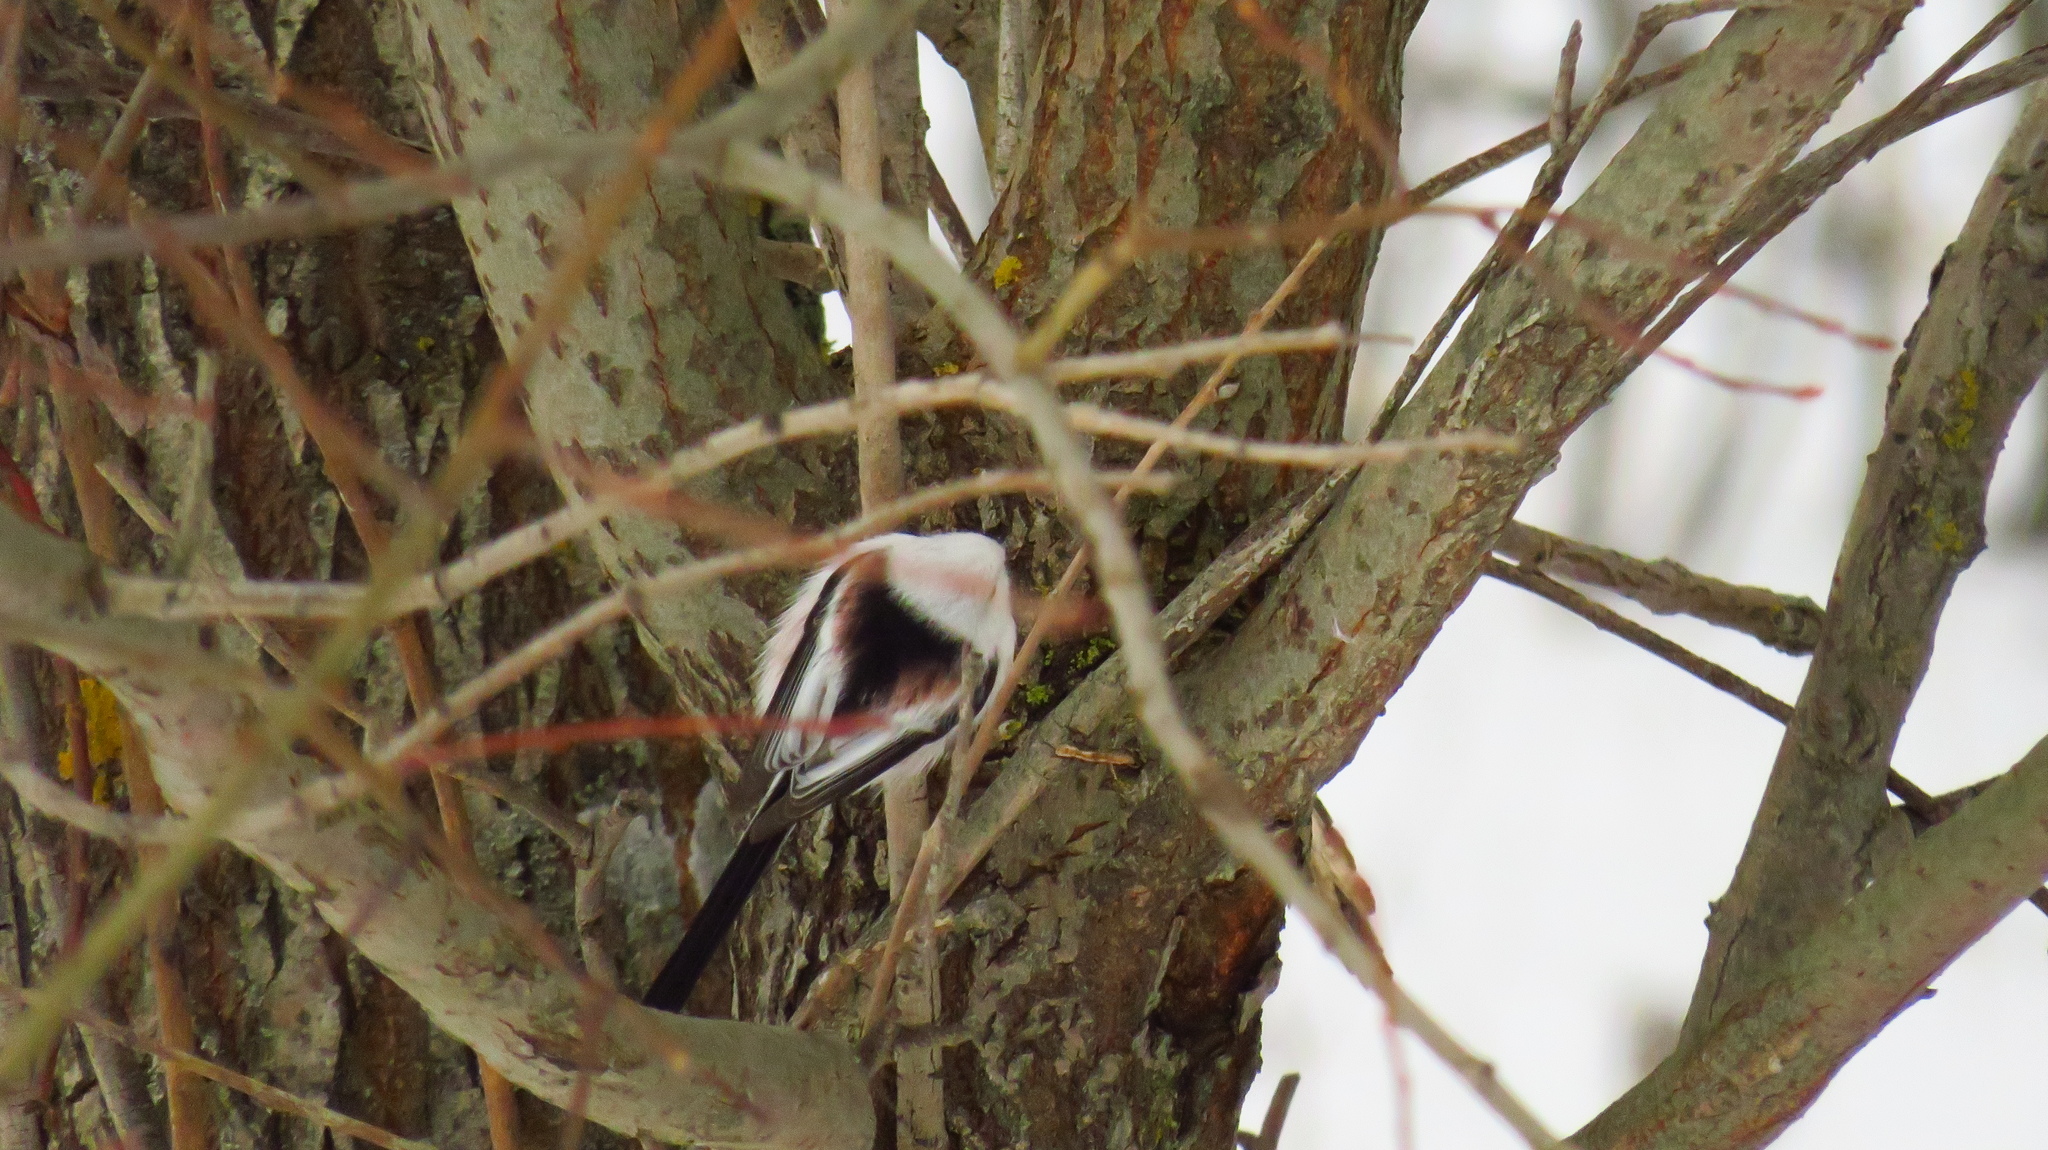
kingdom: Animalia
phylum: Chordata
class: Aves
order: Passeriformes
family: Aegithalidae
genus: Aegithalos
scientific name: Aegithalos caudatus
